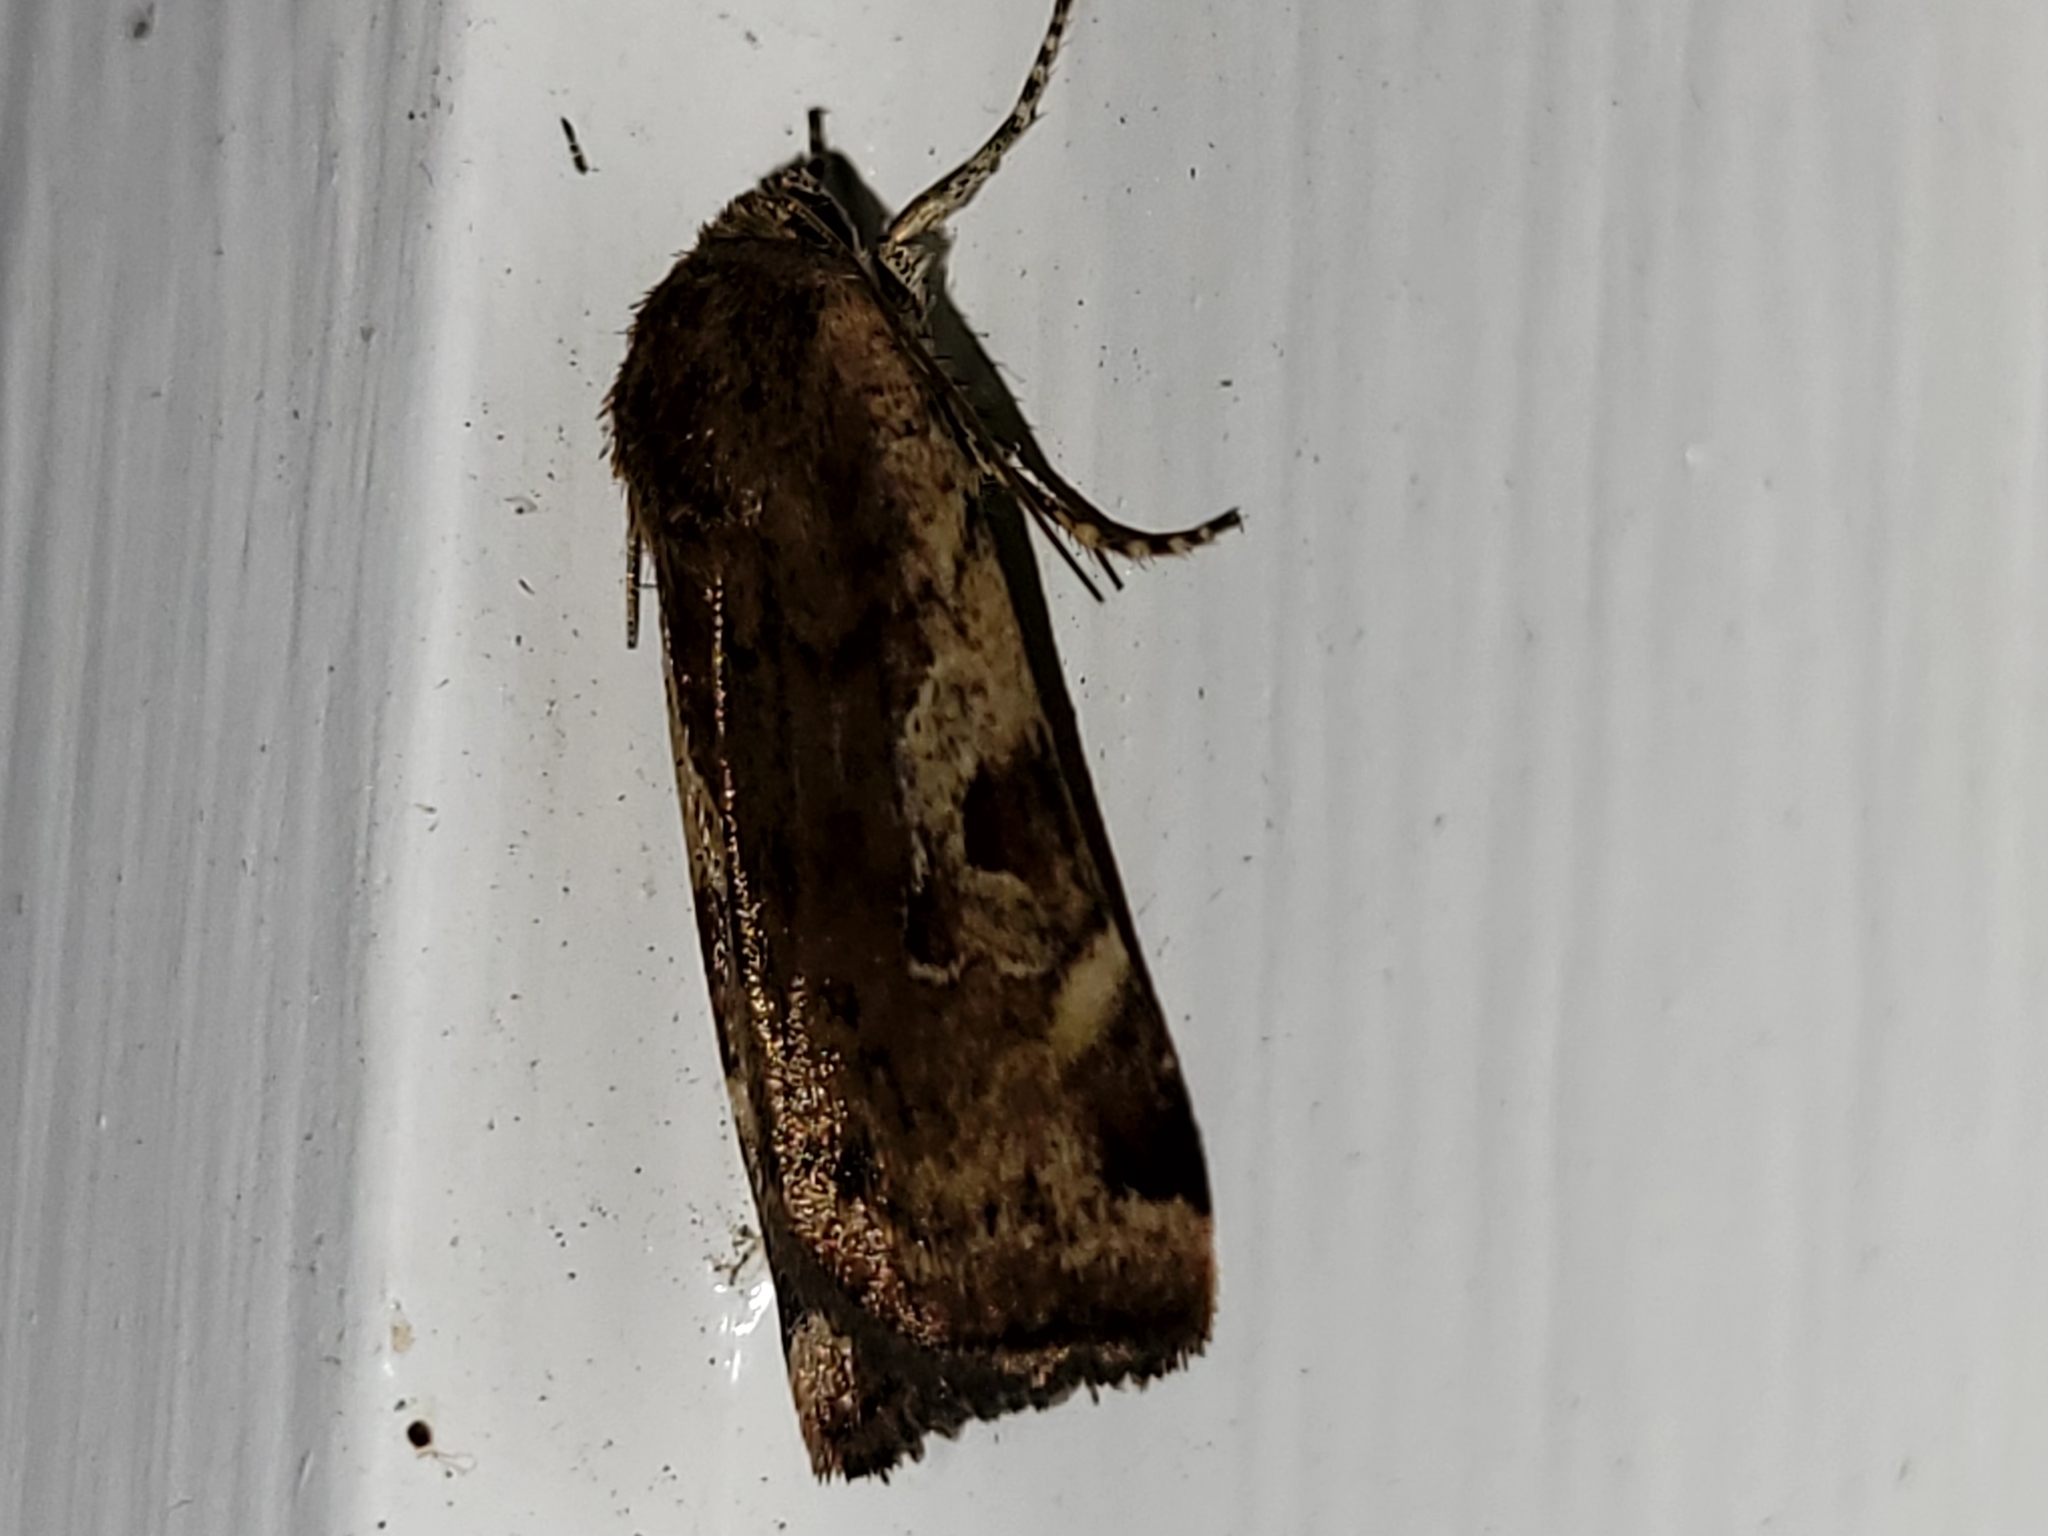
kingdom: Animalia
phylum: Arthropoda
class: Insecta
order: Lepidoptera
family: Noctuidae
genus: Cryptocala
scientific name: Cryptocala acadiensis
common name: Catocaline dart
